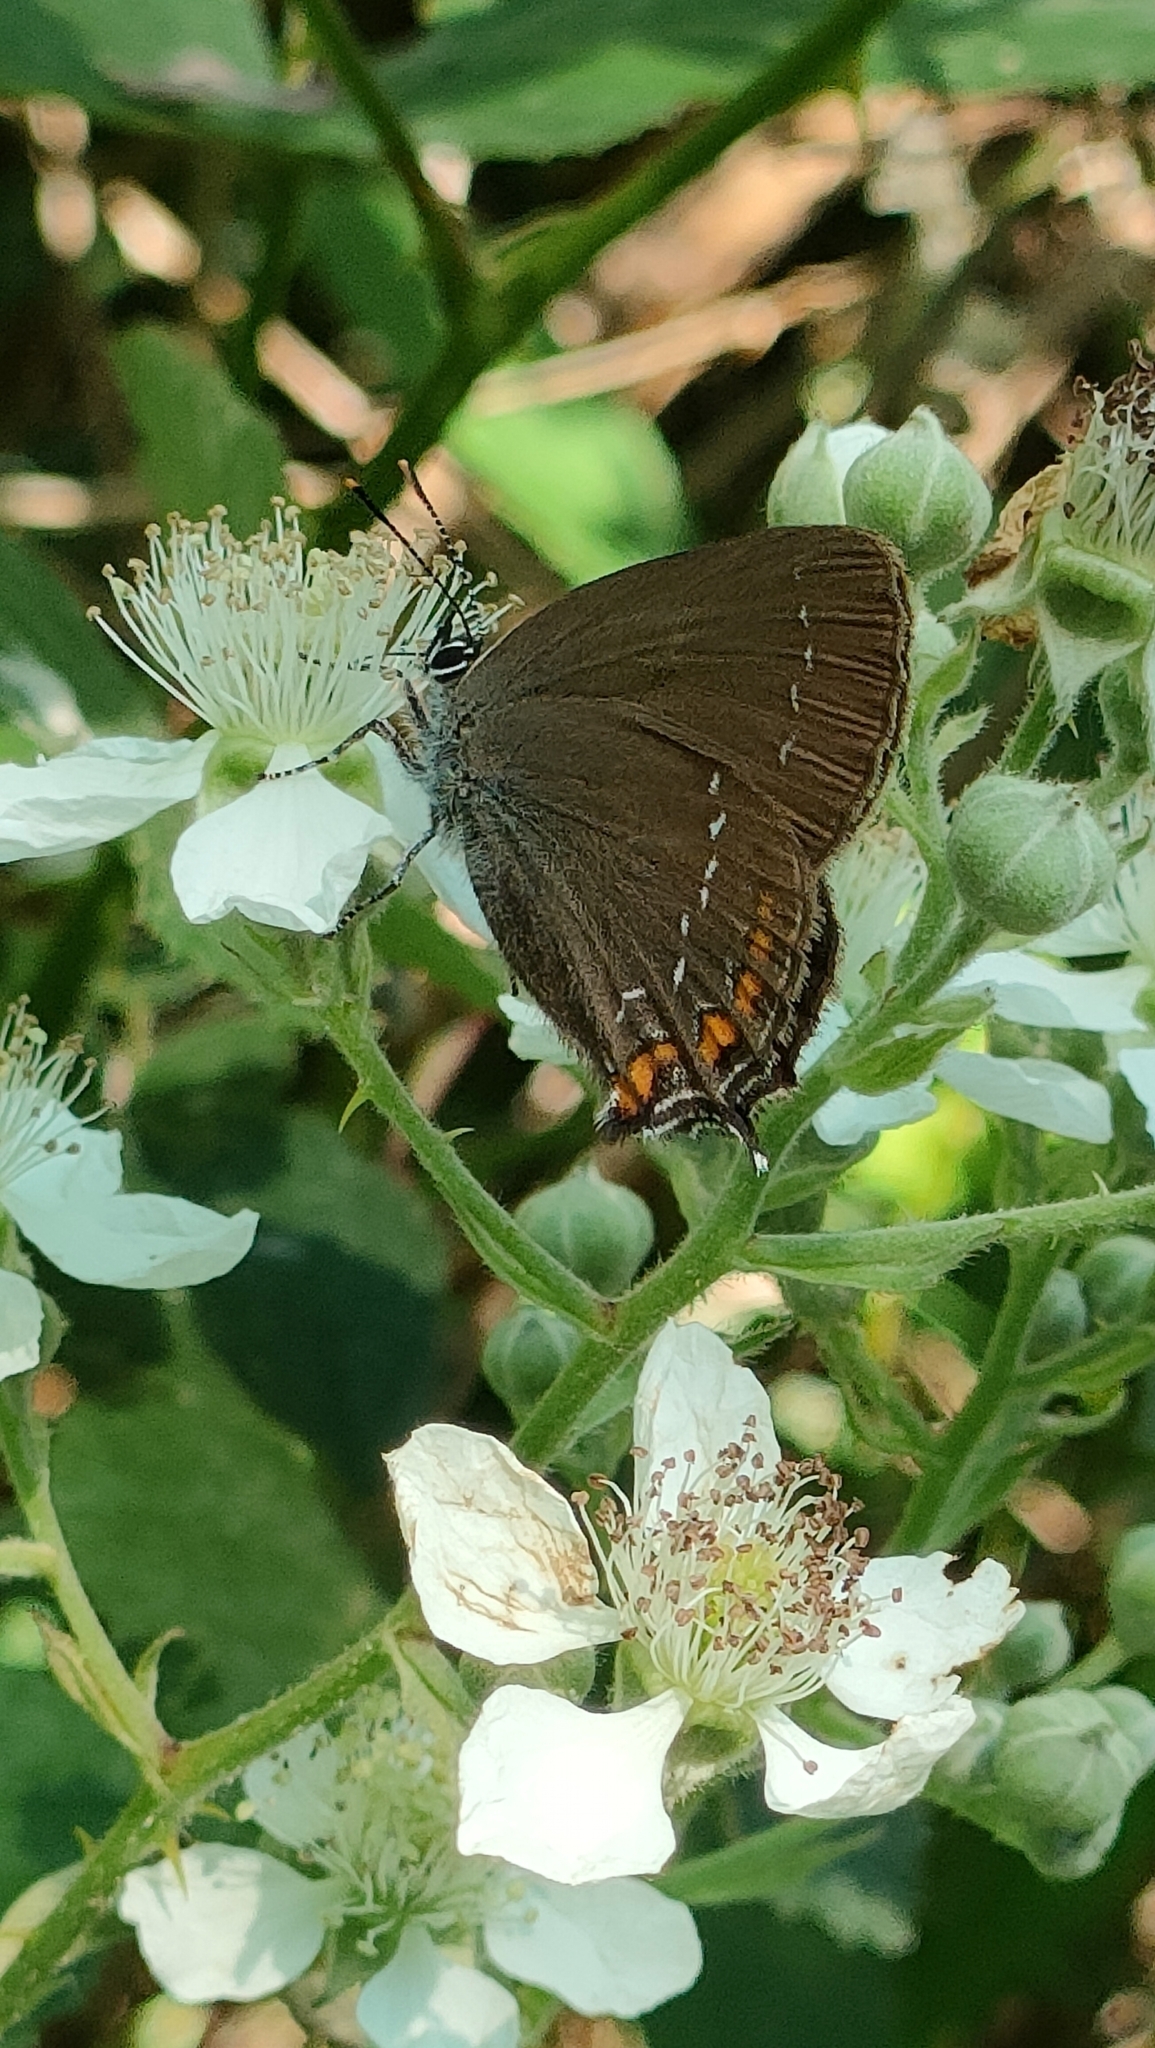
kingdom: Animalia
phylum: Arthropoda
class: Insecta
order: Lepidoptera
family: Lycaenidae
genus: Nordmannia
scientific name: Nordmannia ilicis
